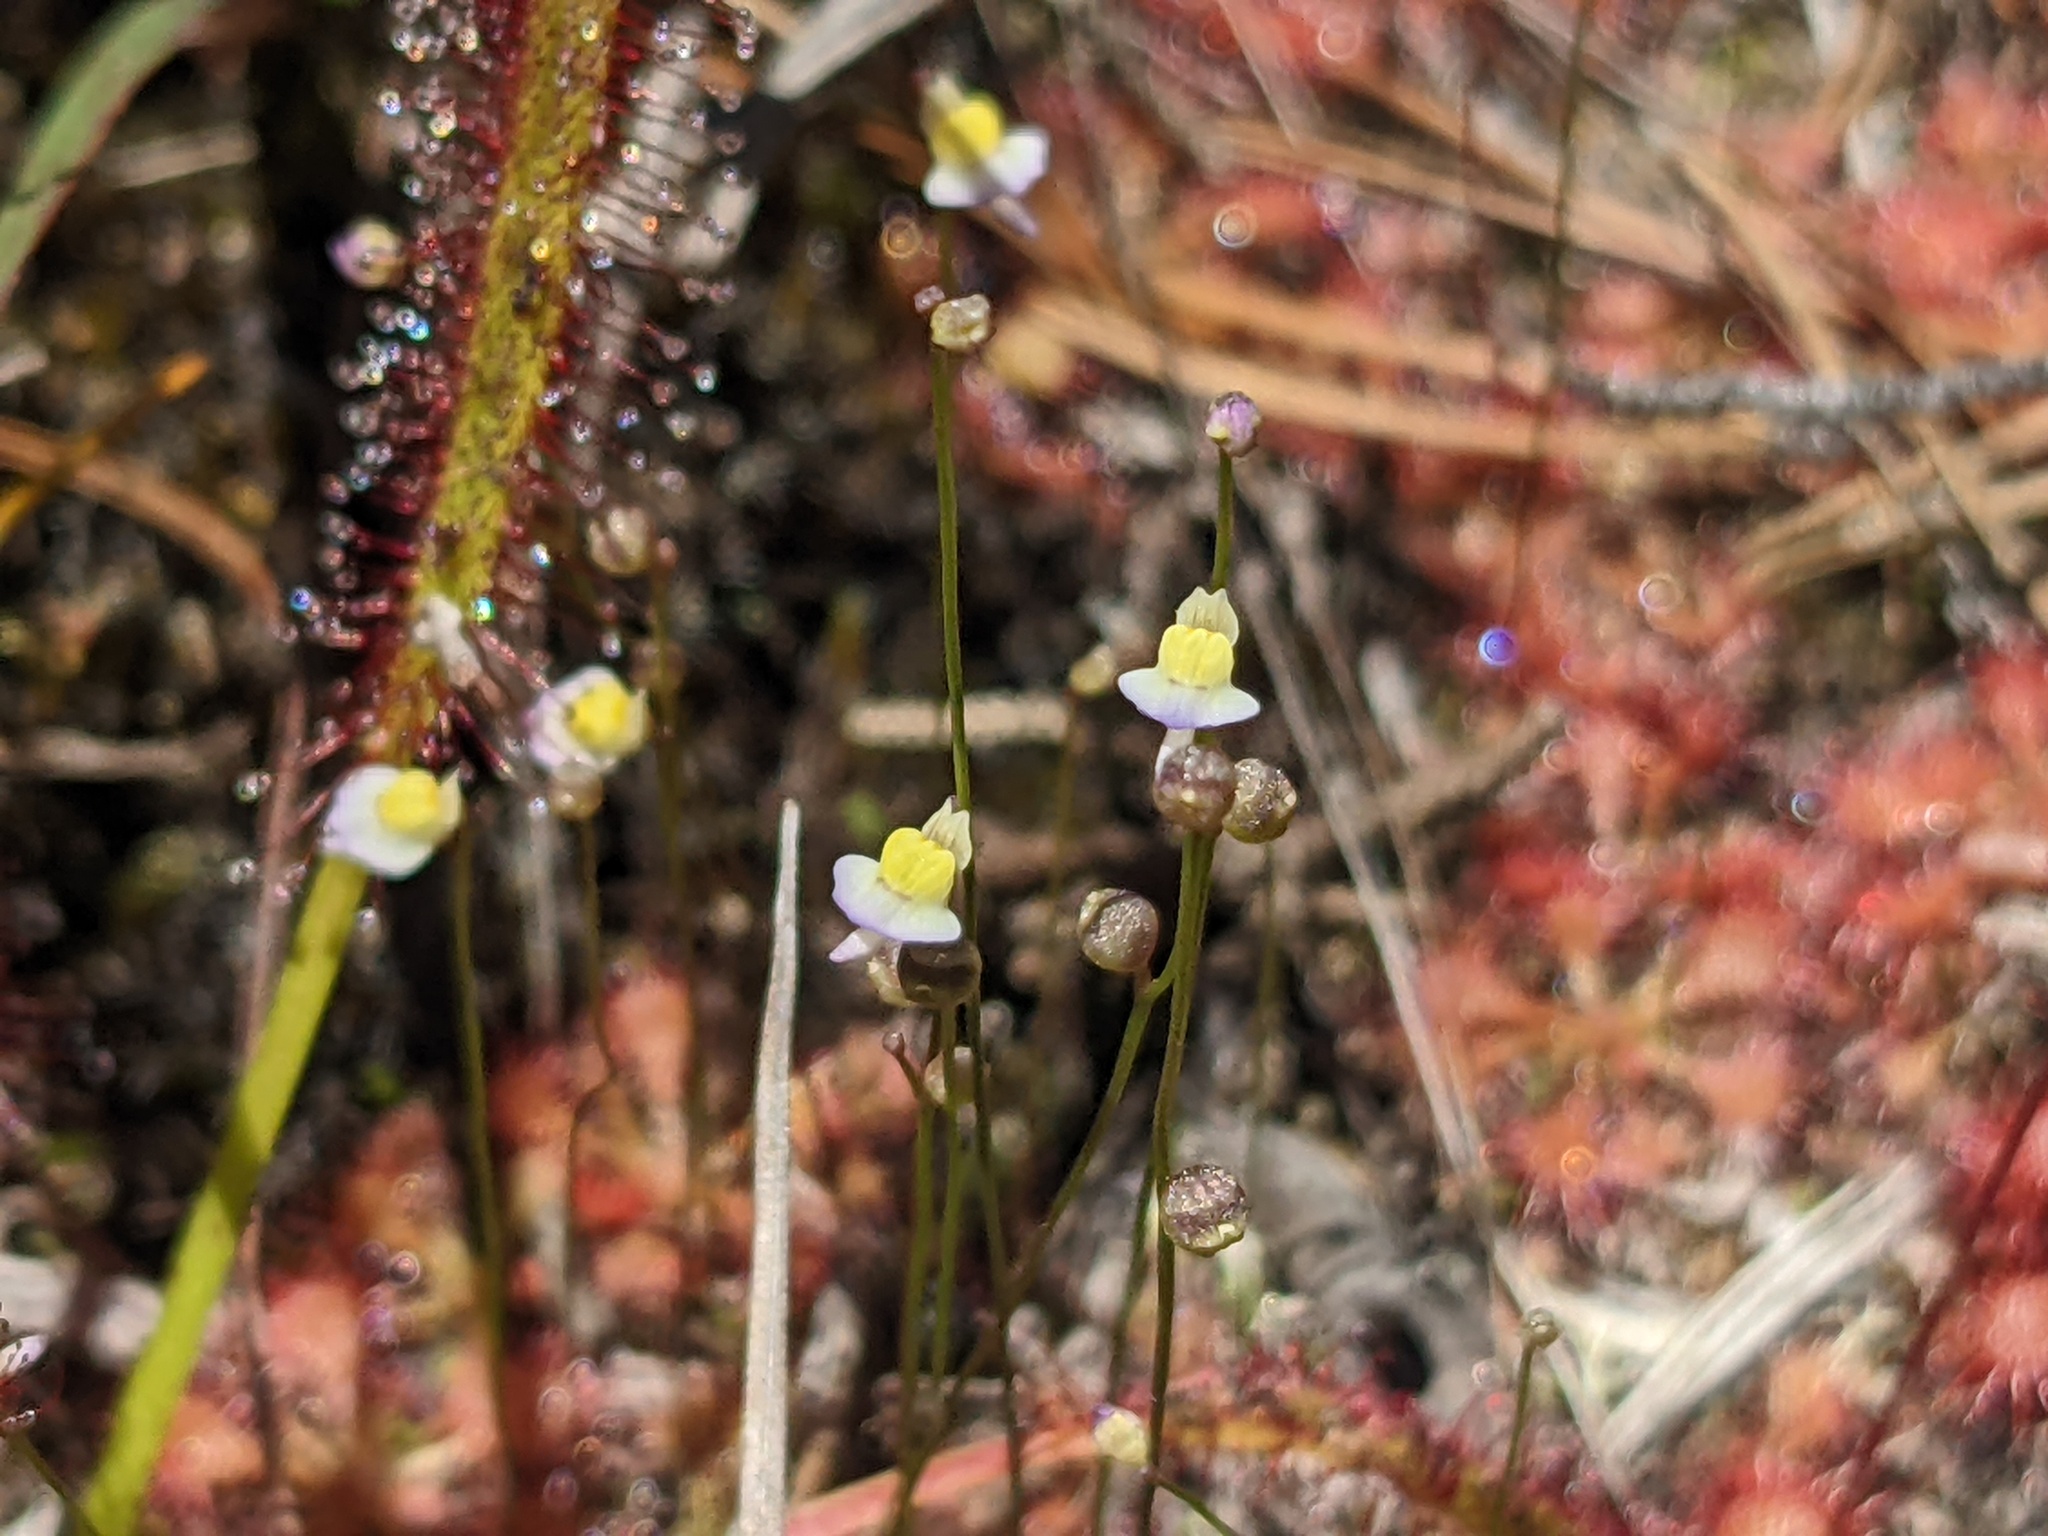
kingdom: Plantae
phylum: Tracheophyta
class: Magnoliopsida
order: Lamiales
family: Lentibulariaceae
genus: Utricularia
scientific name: Utricularia bisquamata
